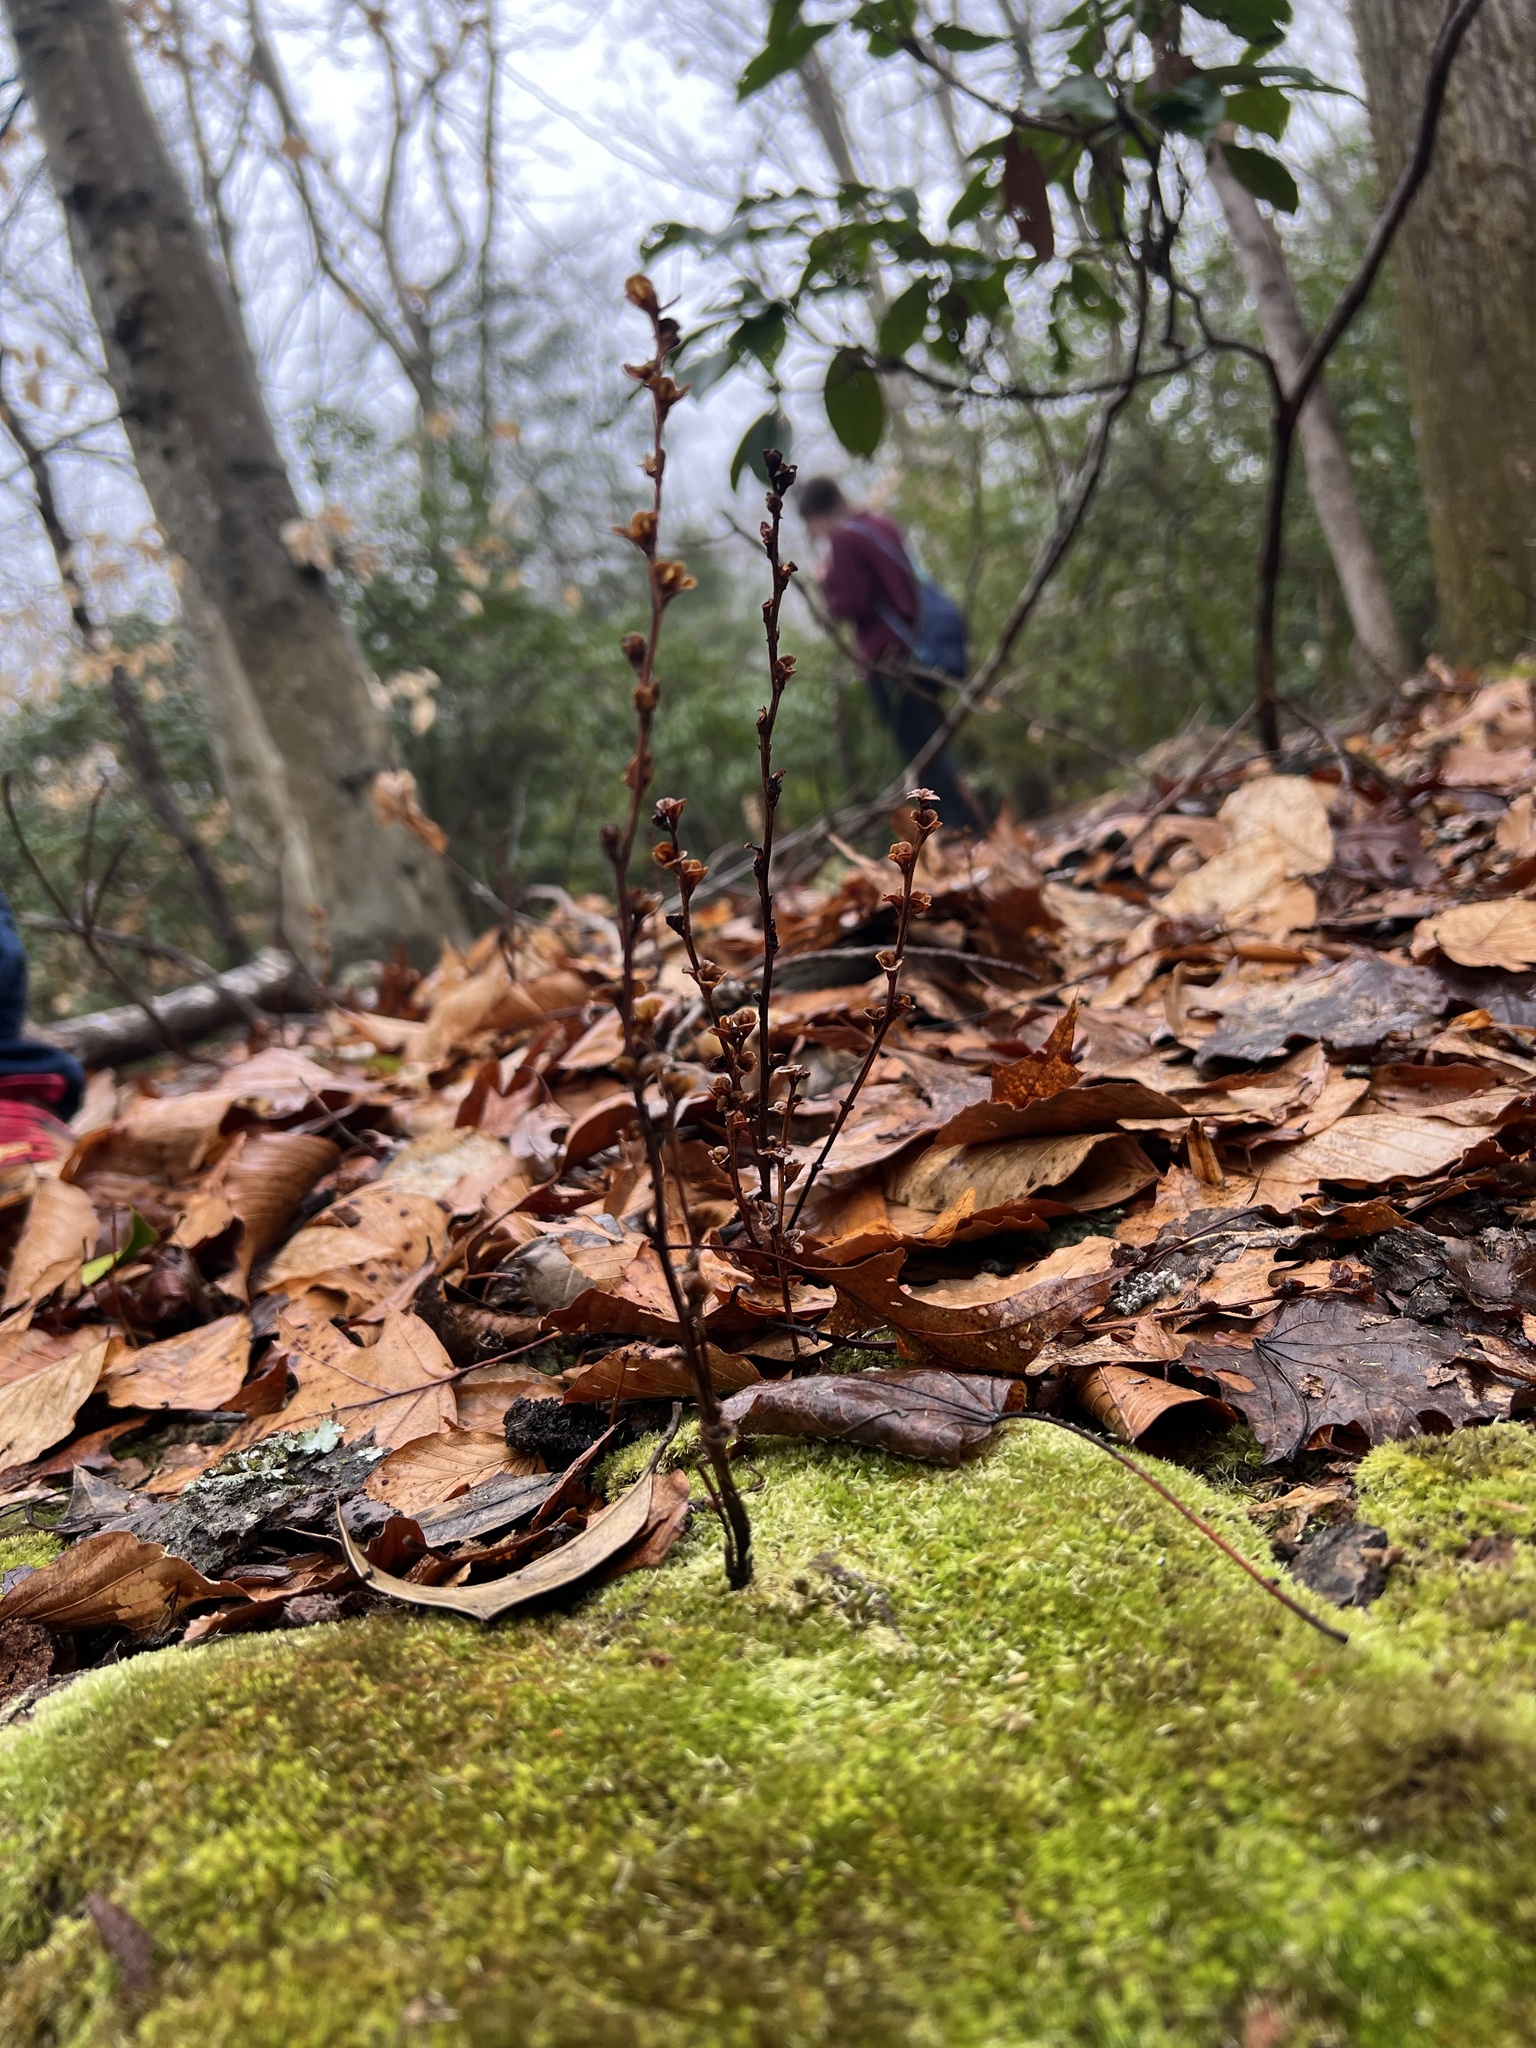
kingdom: Plantae
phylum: Tracheophyta
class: Magnoliopsida
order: Lamiales
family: Orobanchaceae
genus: Epifagus
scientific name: Epifagus virginiana
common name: Beechdrops
